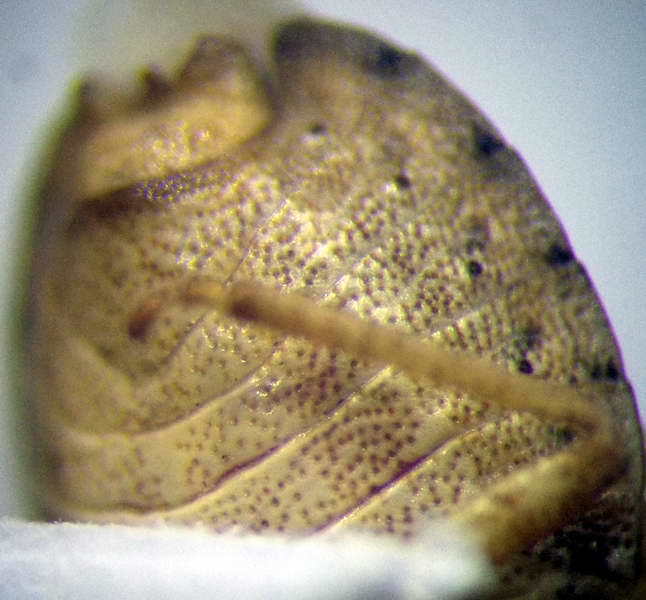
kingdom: Animalia
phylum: Arthropoda
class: Insecta
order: Hemiptera
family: Pentatomidae
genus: Sciocoris
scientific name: Sciocoris sulcatus
